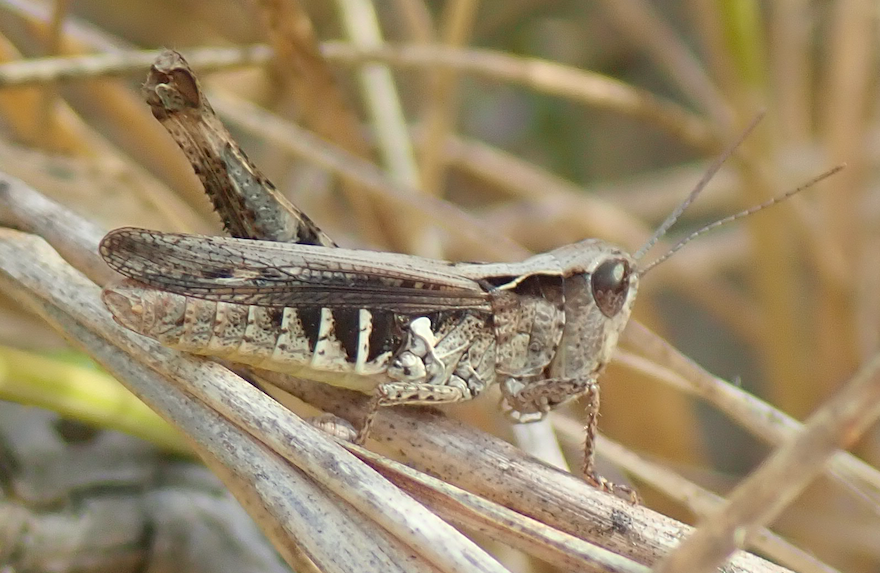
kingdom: Animalia
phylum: Arthropoda
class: Insecta
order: Orthoptera
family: Acrididae
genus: Chorthippus
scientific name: Chorthippus mollis
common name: Lesser field grasshopper
